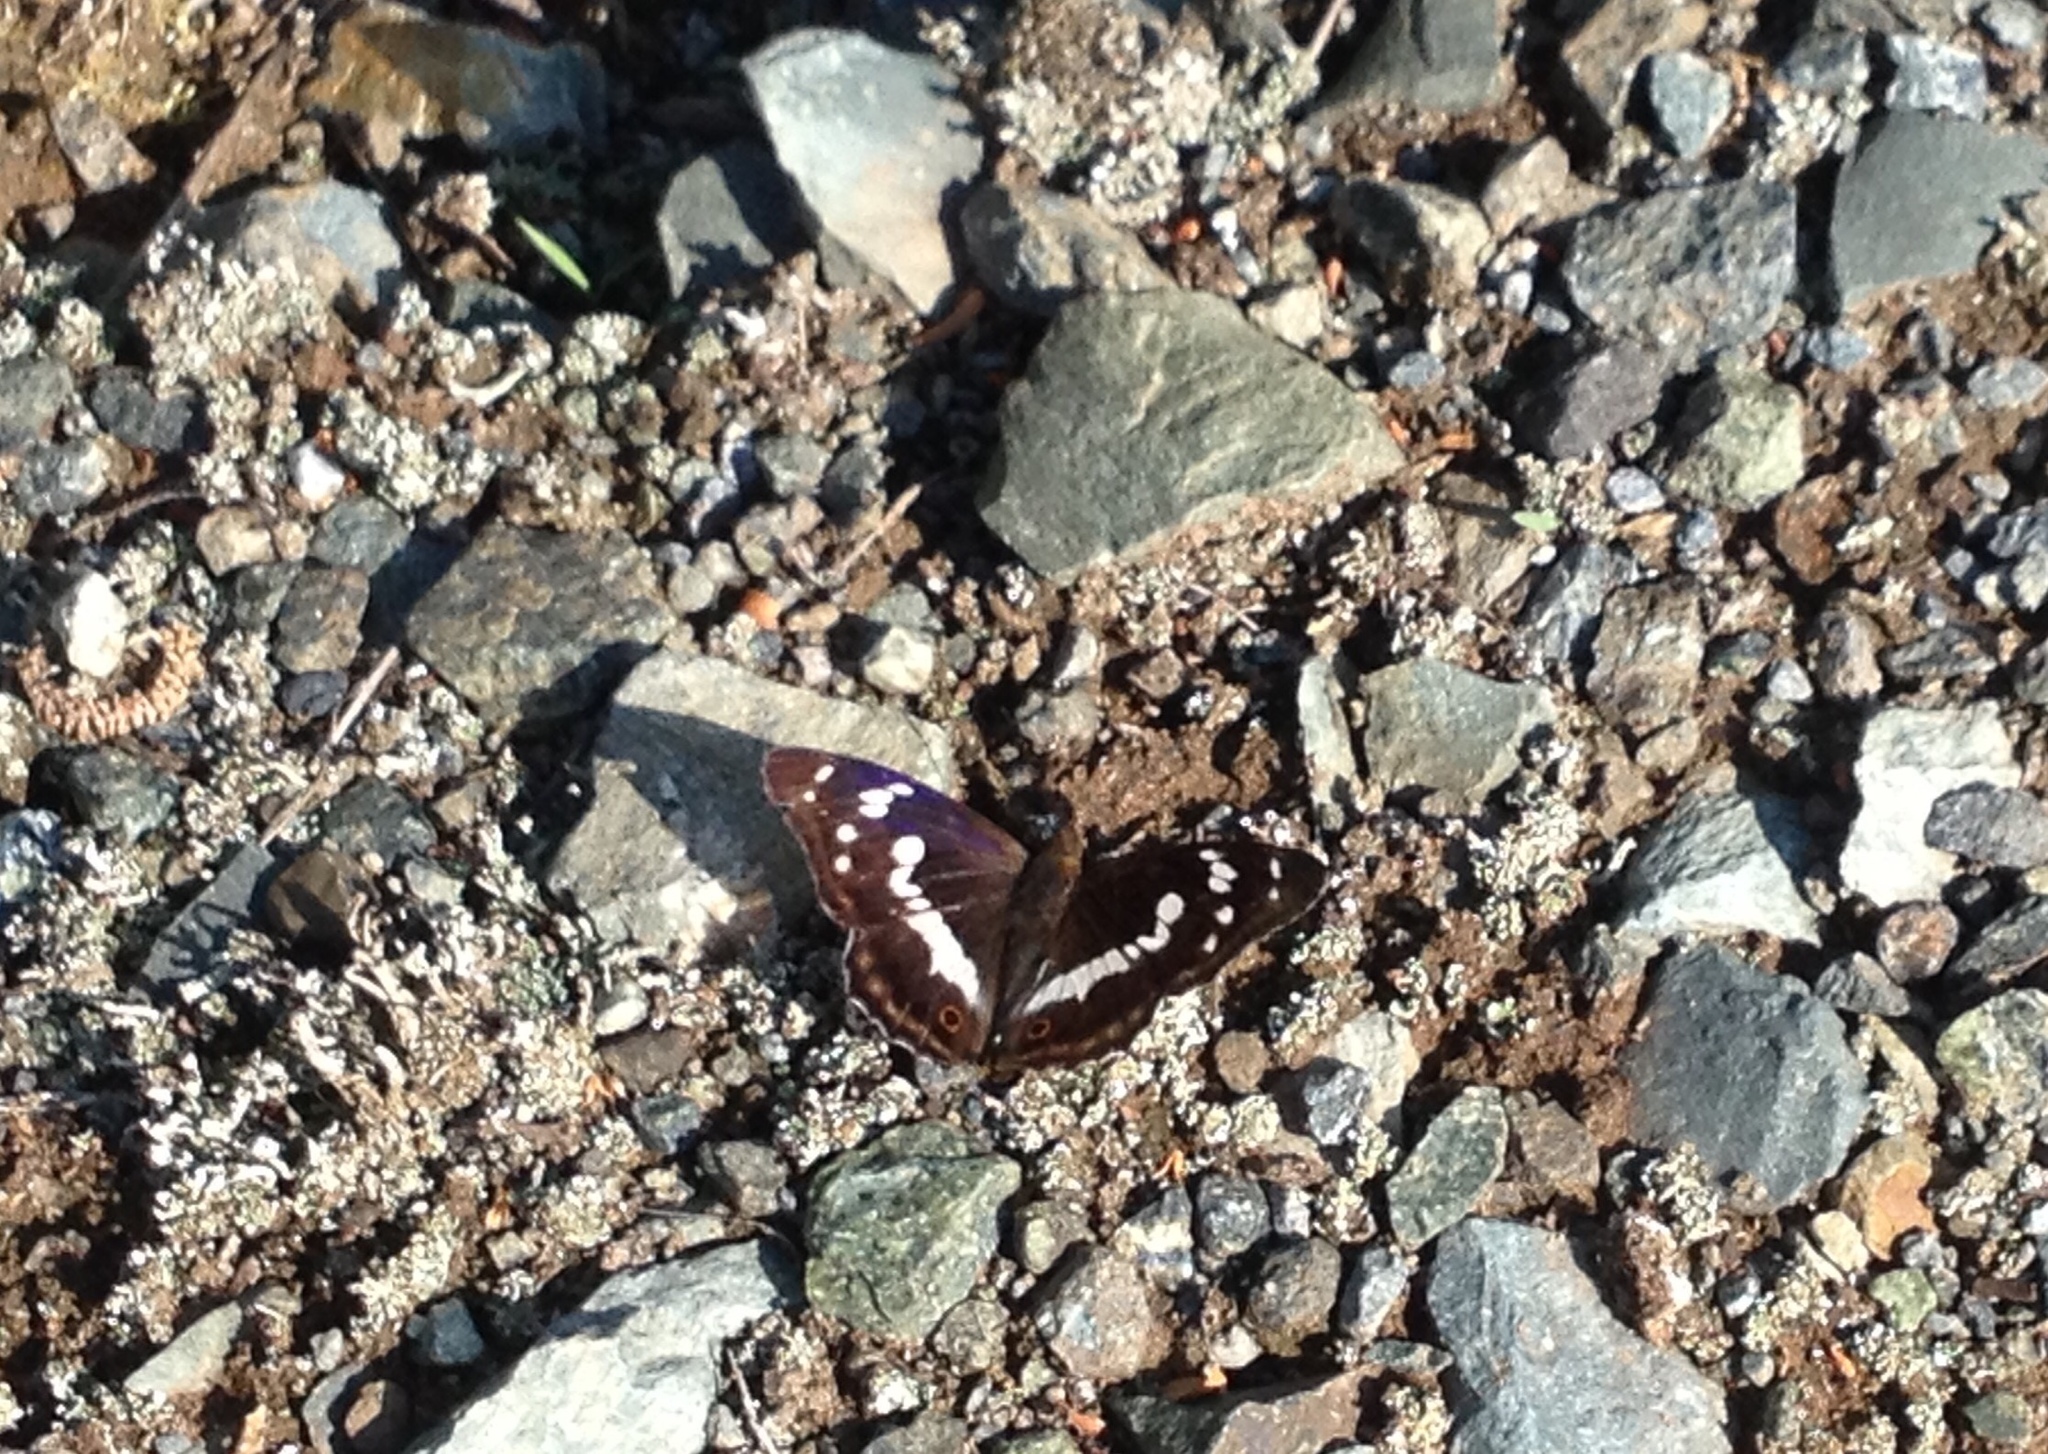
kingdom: Animalia
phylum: Arthropoda
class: Insecta
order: Lepidoptera
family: Nymphalidae
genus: Apatura
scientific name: Apatura iris
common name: Purple emperor
